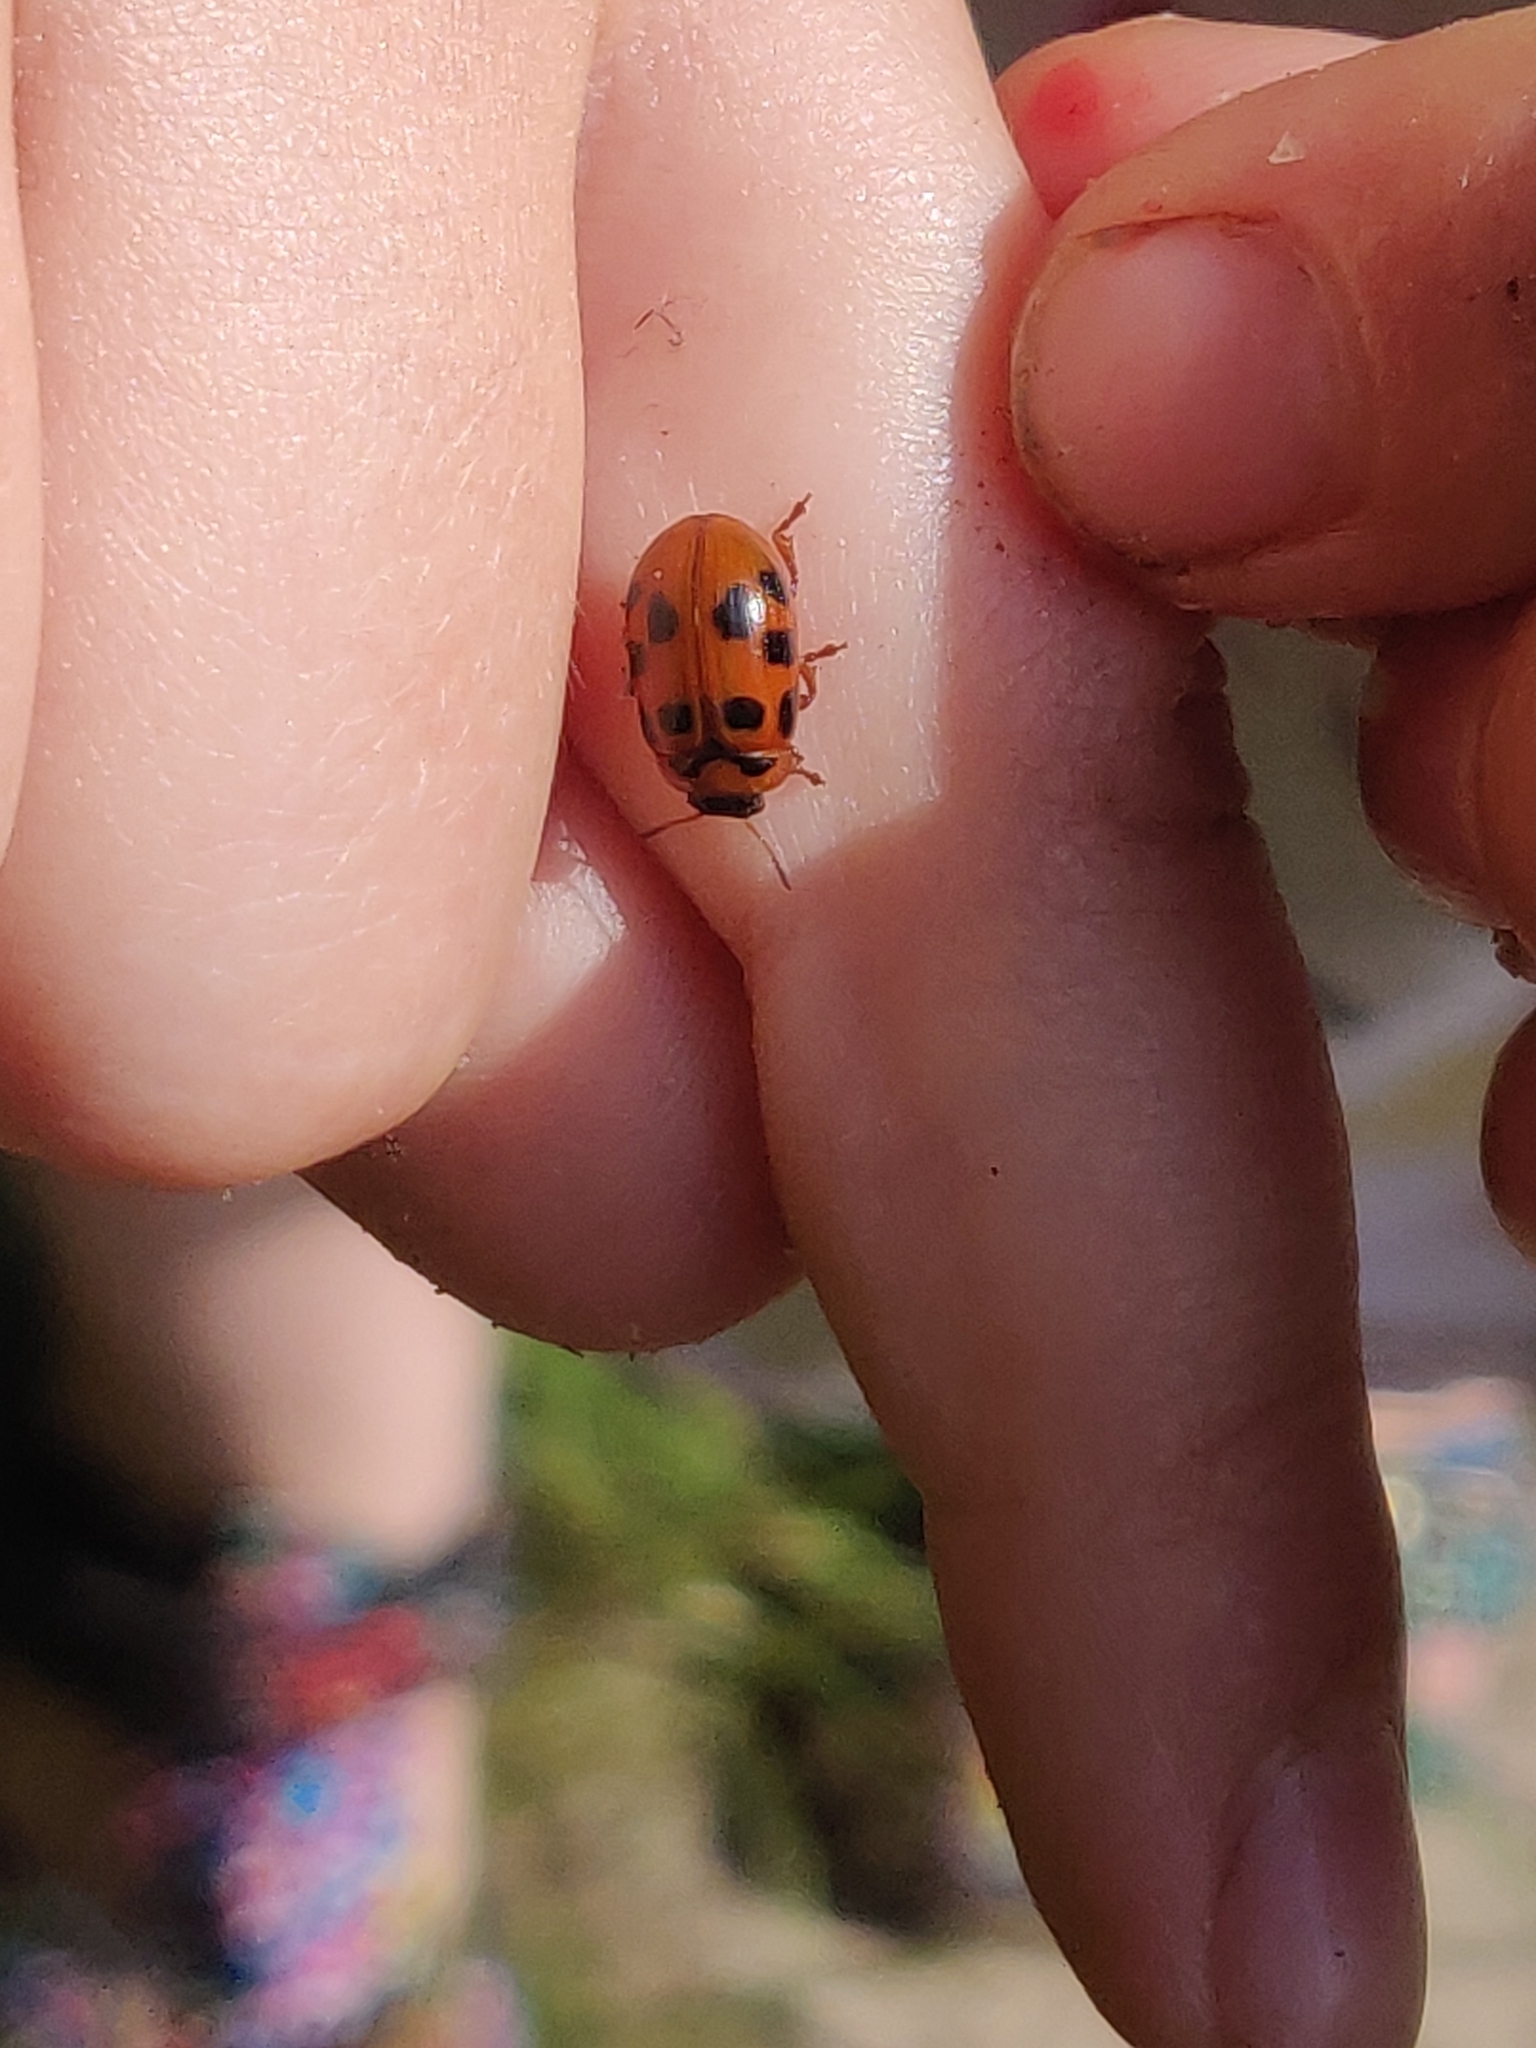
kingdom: Animalia
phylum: Arthropoda
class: Insecta
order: Coleoptera
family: Chrysomelidae
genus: Gonioctena
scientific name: Gonioctena decemnotata
